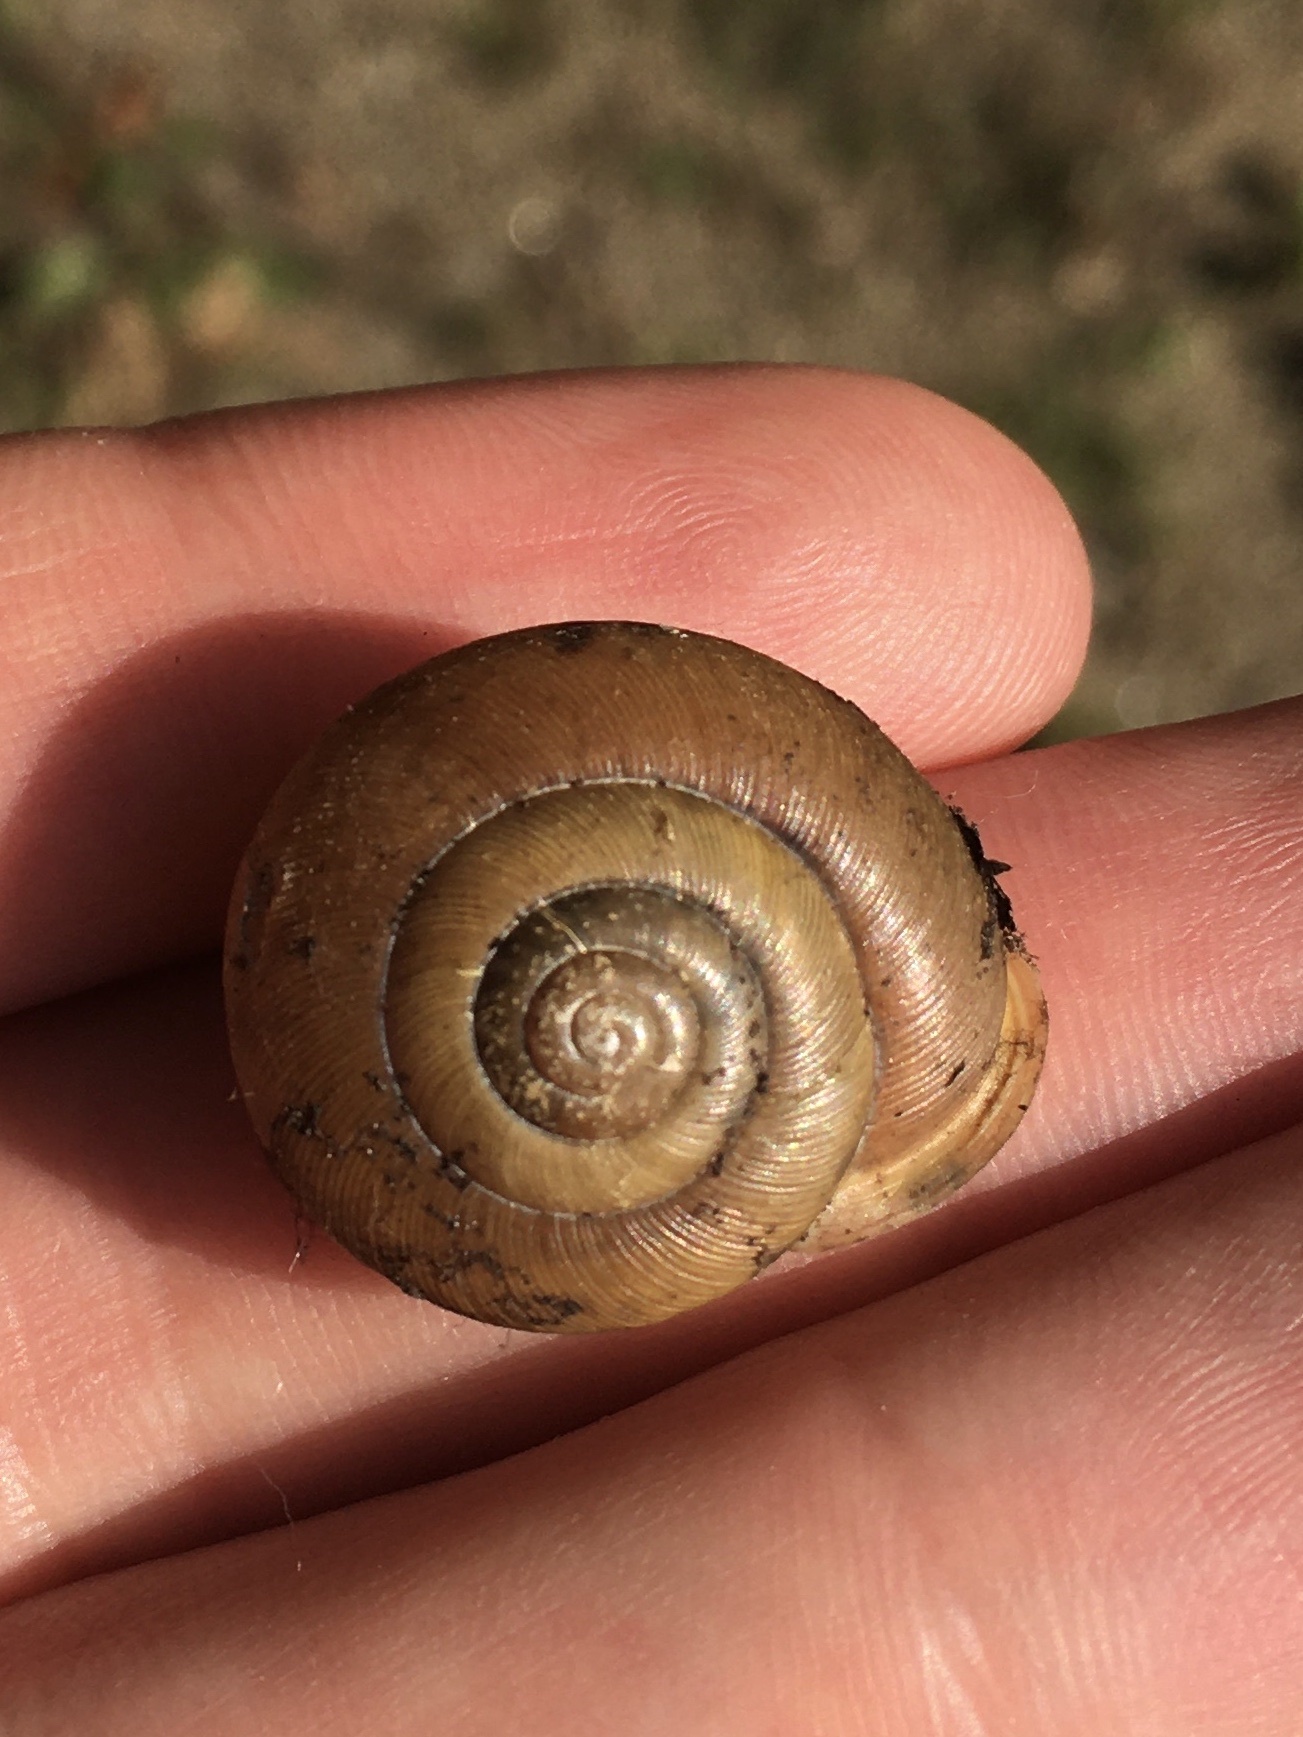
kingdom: Animalia
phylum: Mollusca
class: Gastropoda
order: Stylommatophora
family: Polygyridae
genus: Neohelix
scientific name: Neohelix dentifera
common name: Big-tooth whitelip
